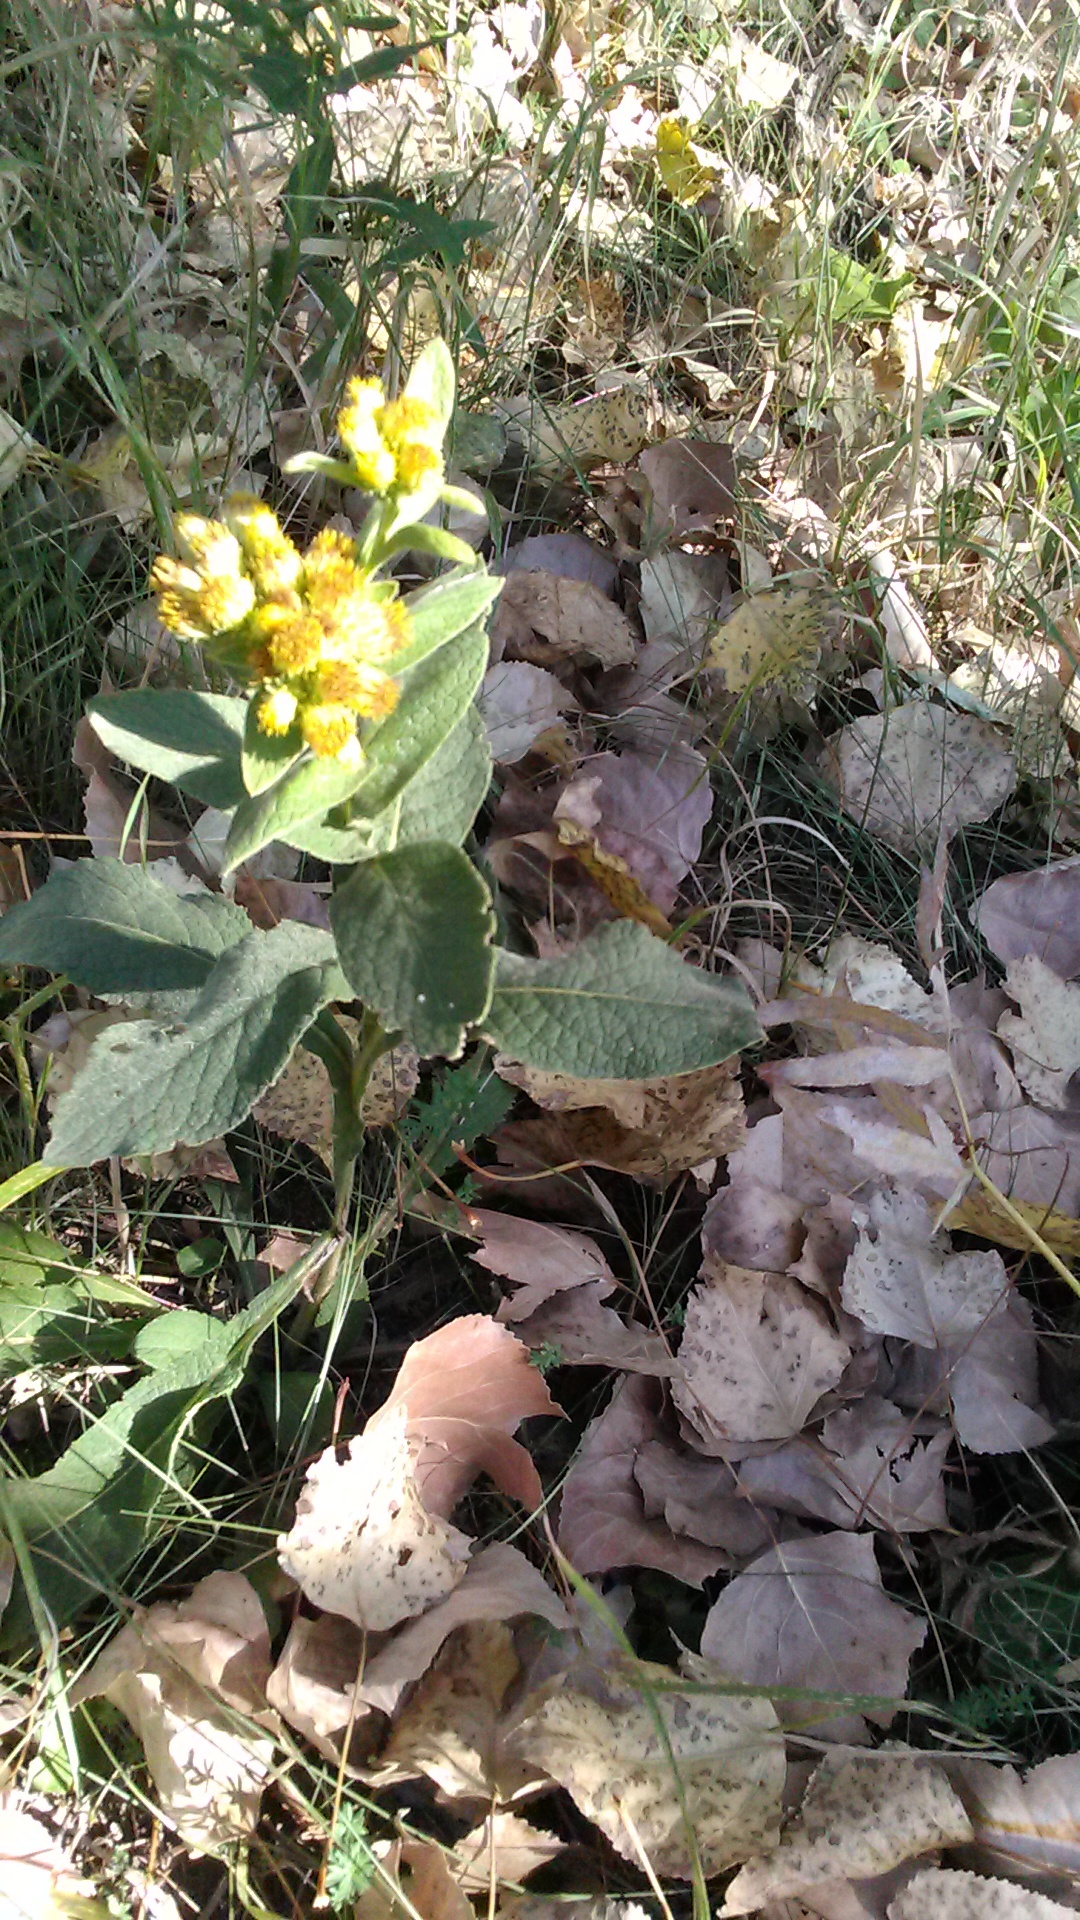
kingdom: Plantae
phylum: Tracheophyta
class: Magnoliopsida
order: Asterales
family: Asteraceae
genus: Inula
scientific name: Inula thapsoides
